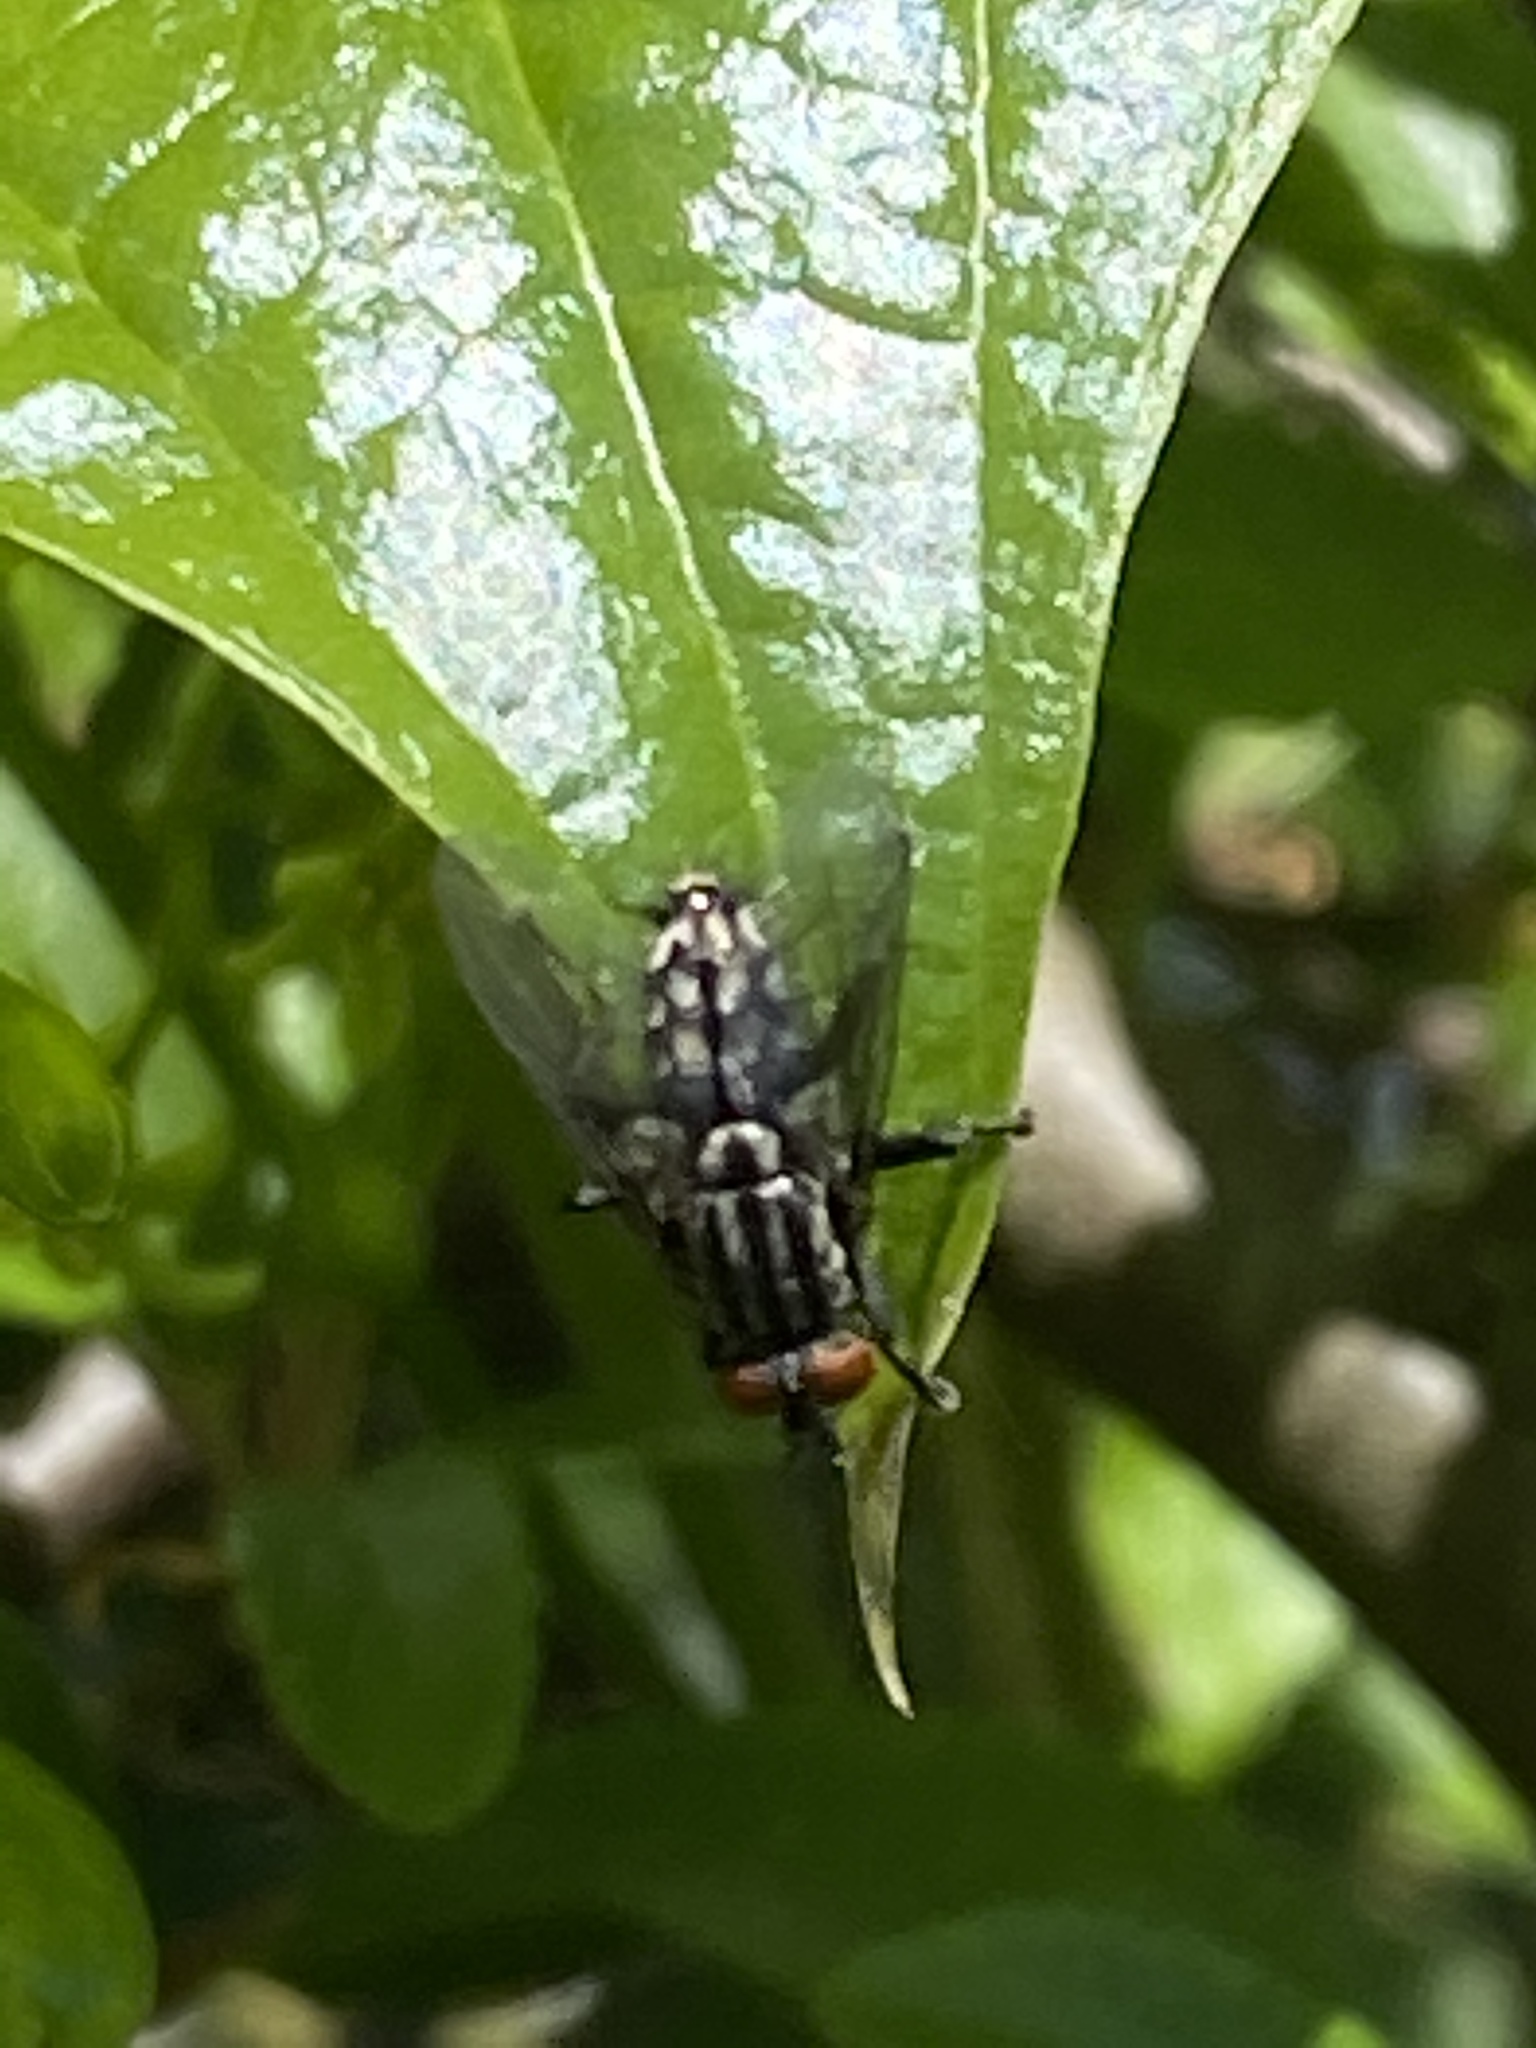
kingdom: Animalia
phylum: Arthropoda
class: Insecta
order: Diptera
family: Sarcophagidae
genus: Sarcophaga
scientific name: Sarcophaga
